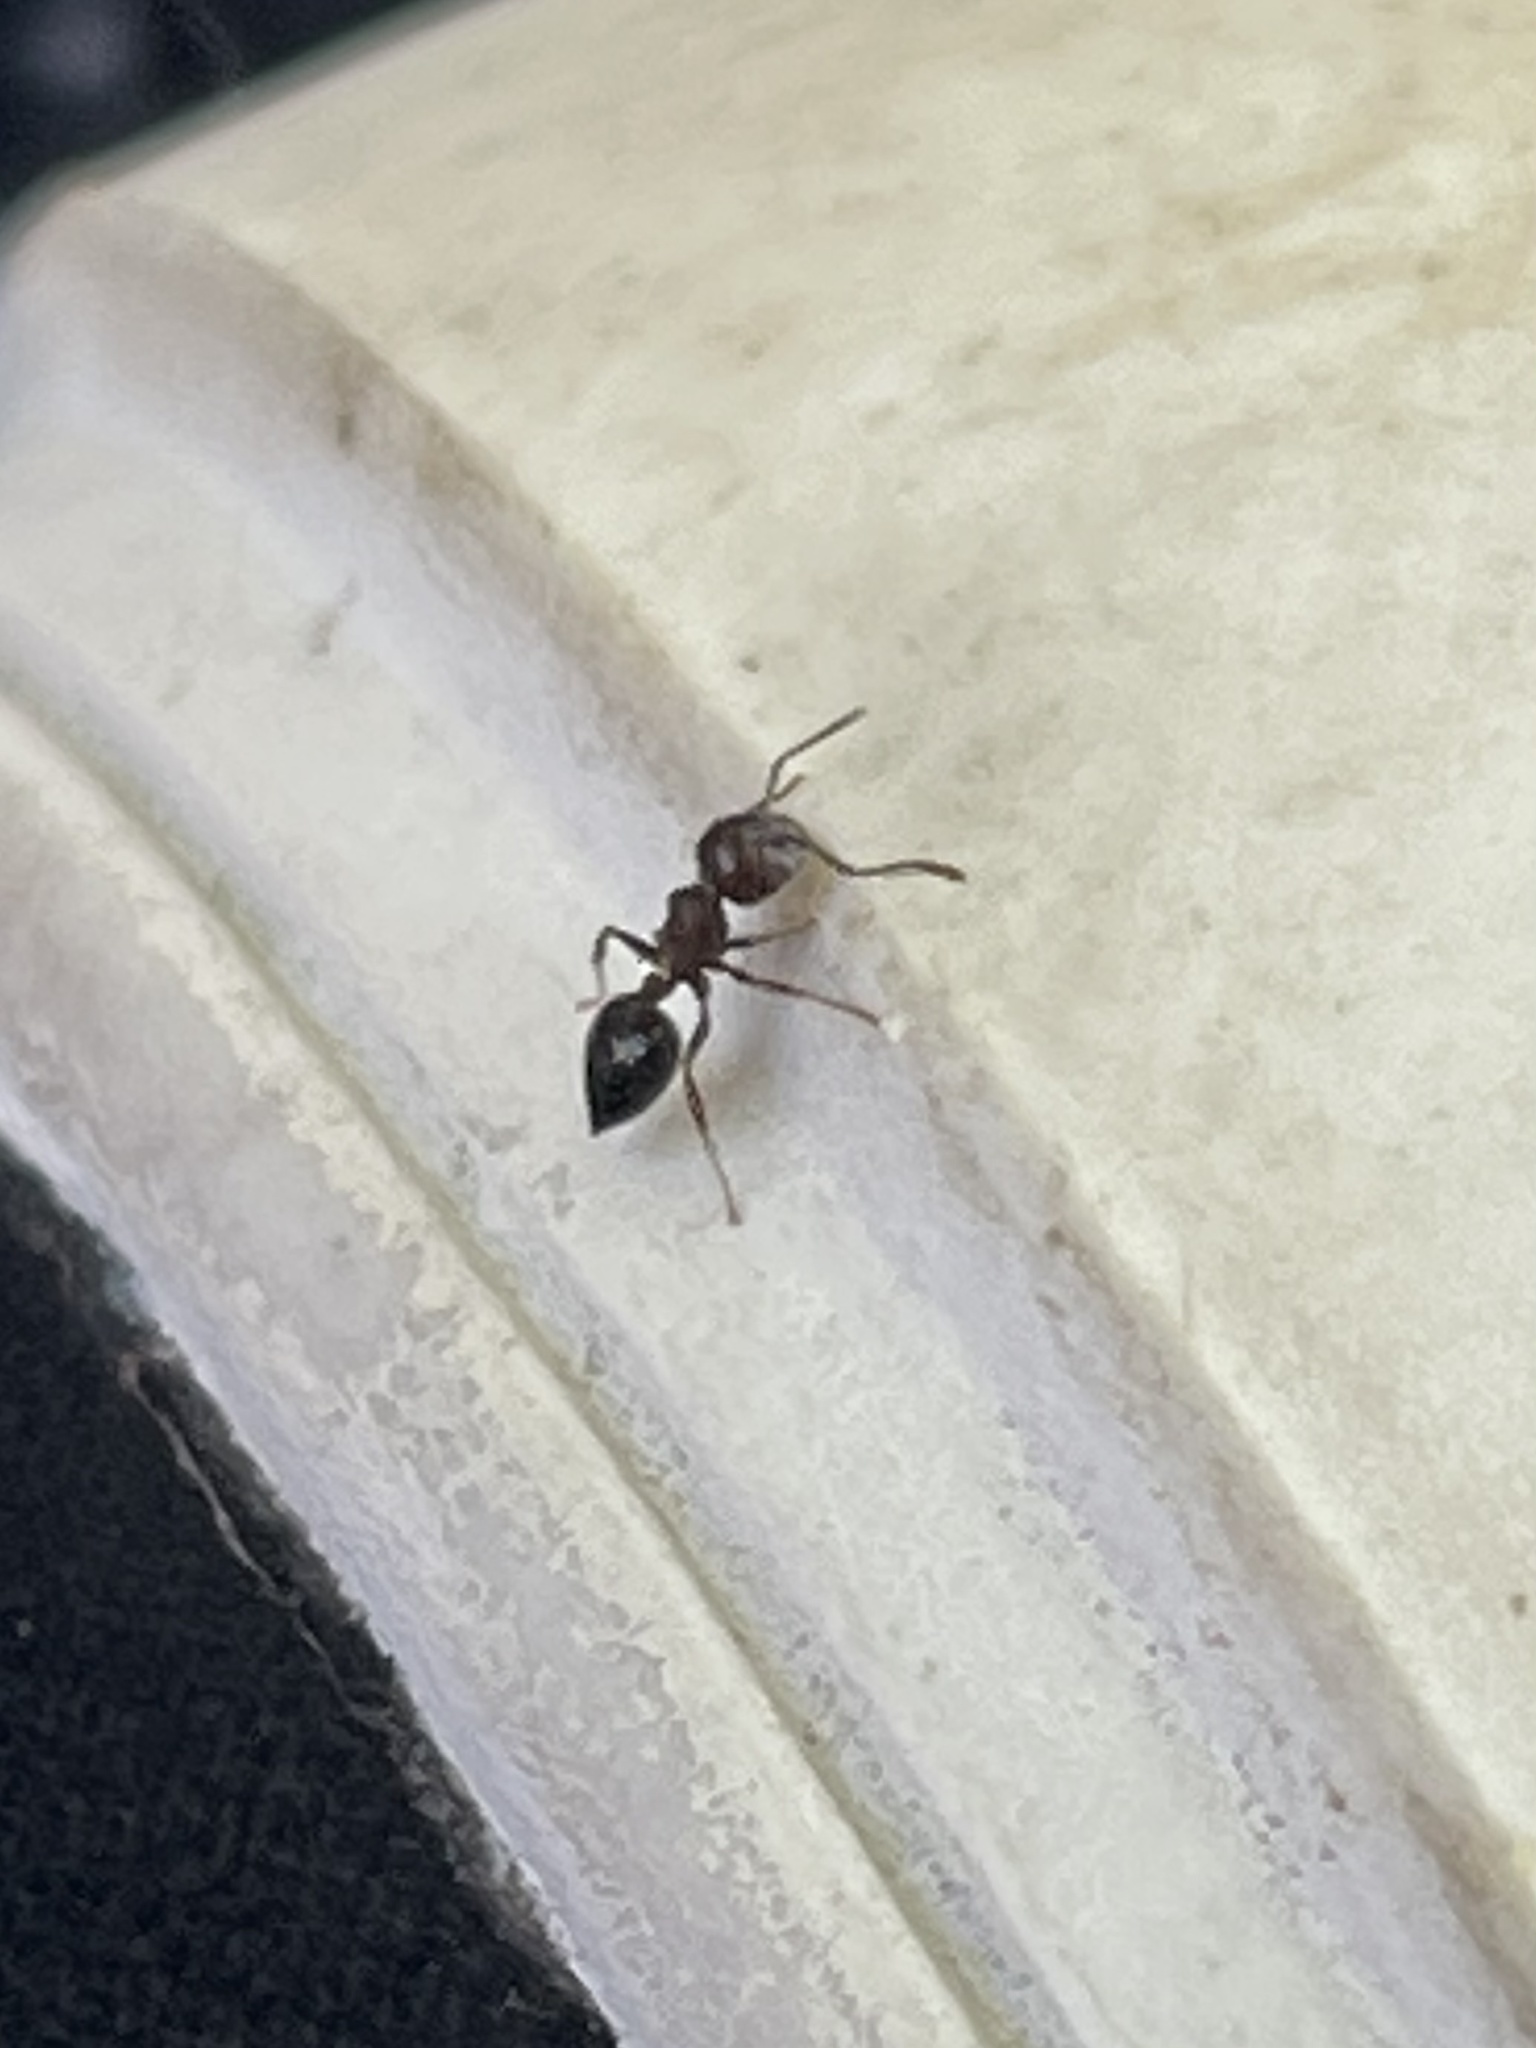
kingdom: Animalia
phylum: Arthropoda
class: Insecta
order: Hymenoptera
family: Formicidae
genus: Crematogaster
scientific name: Crematogaster cerasi
